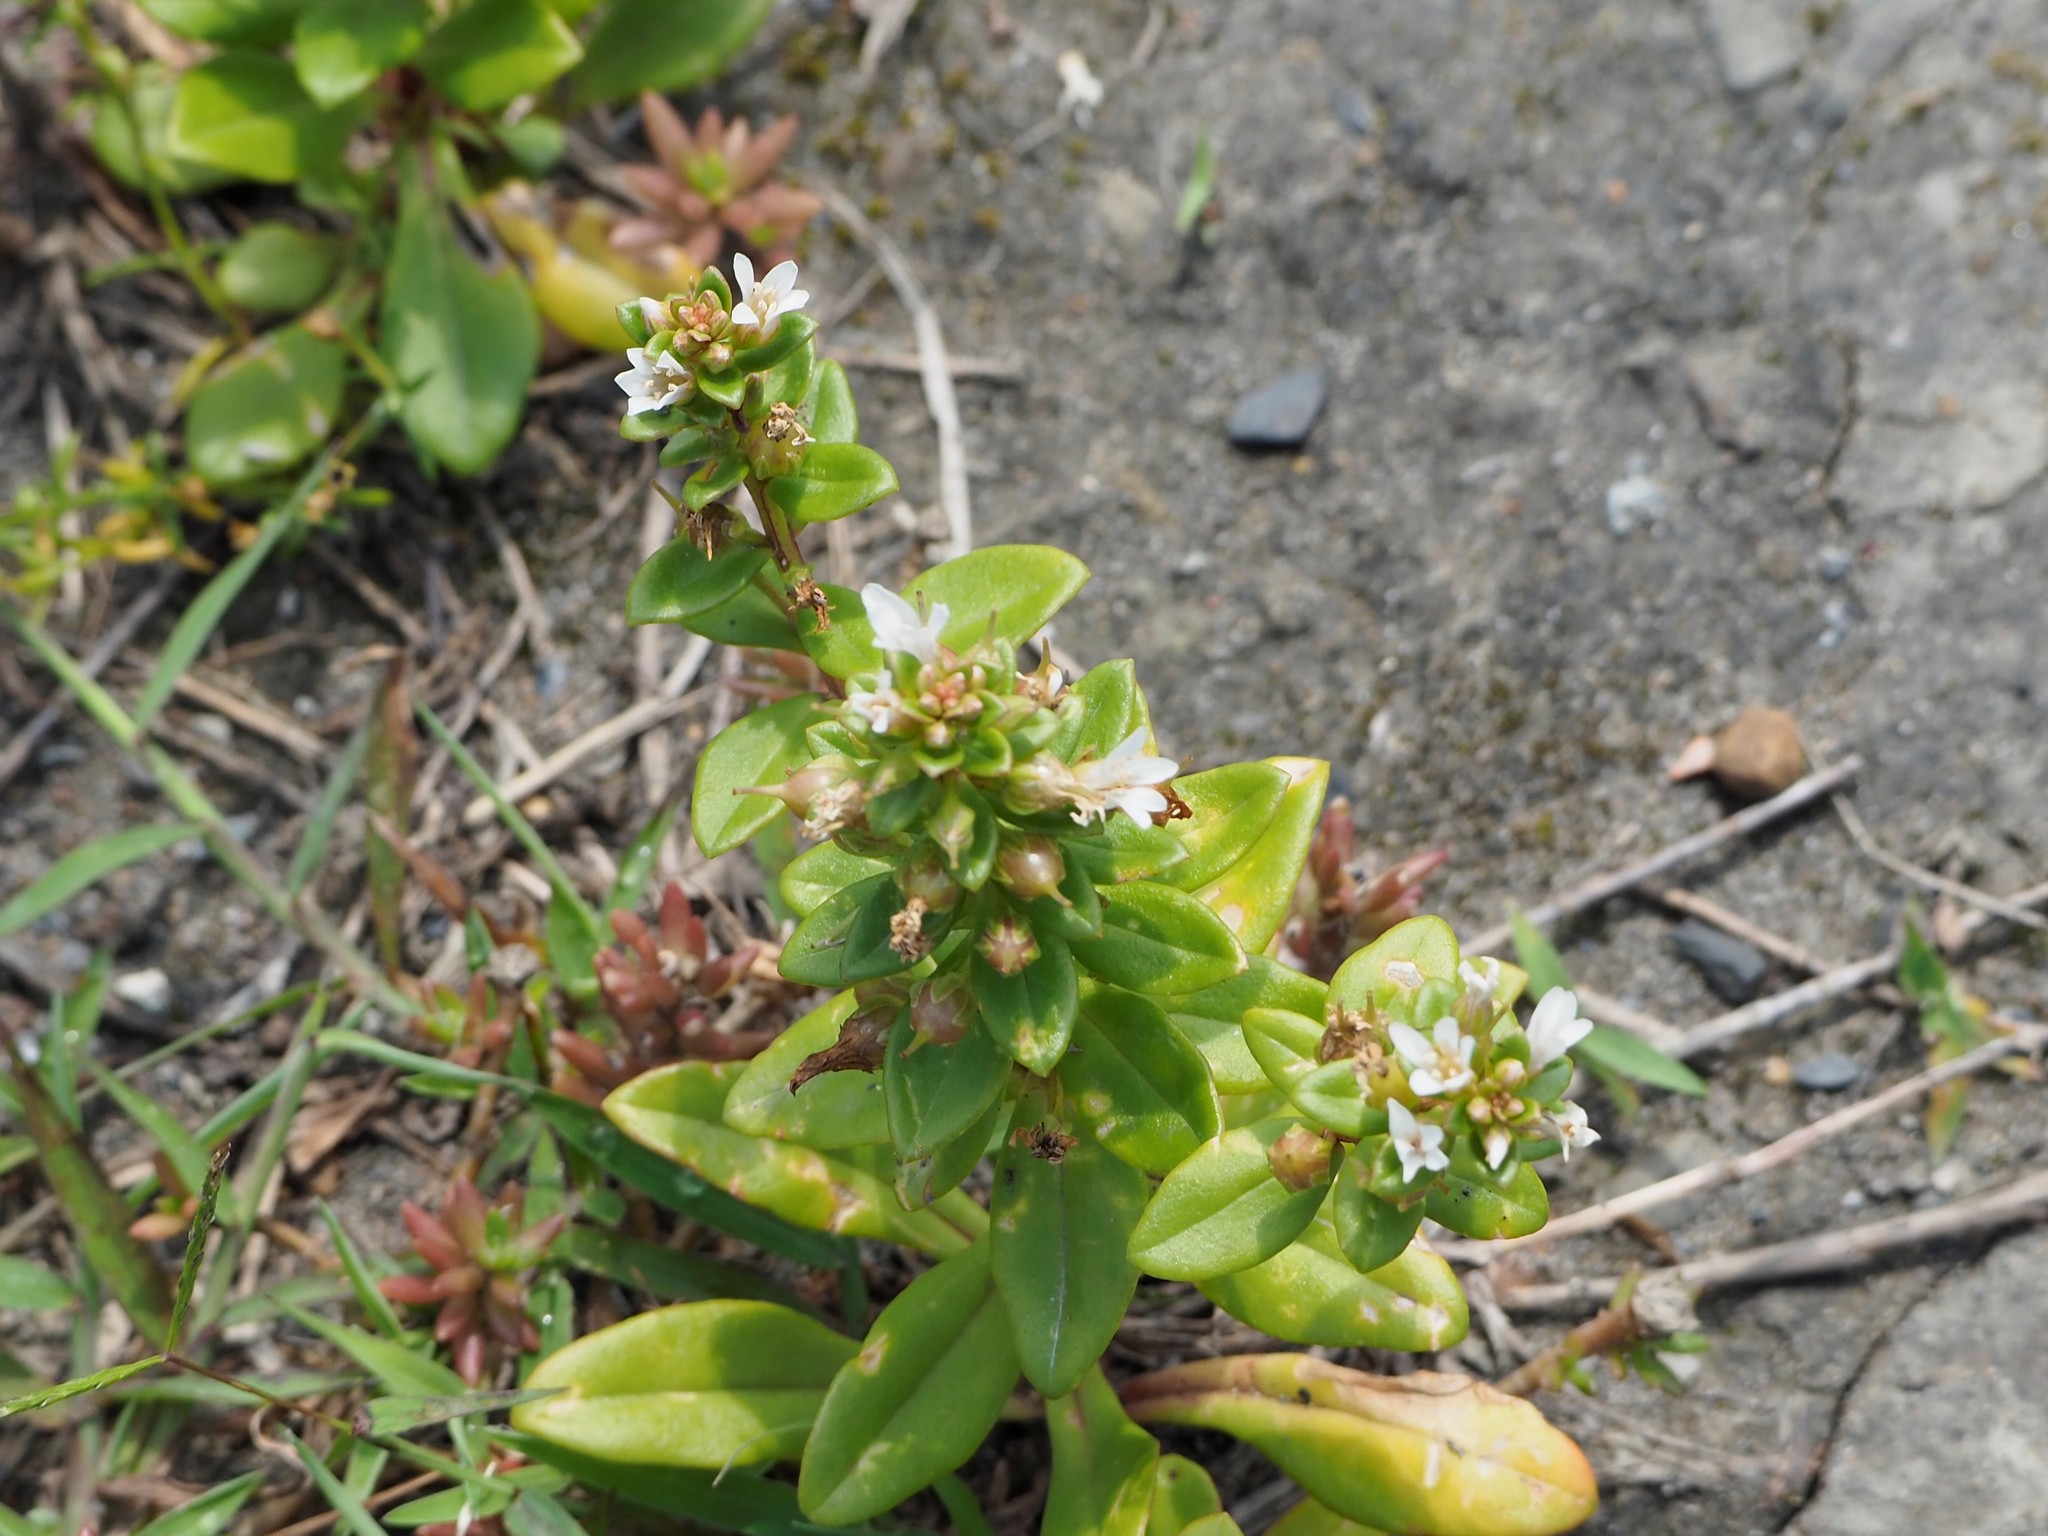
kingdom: Plantae
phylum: Tracheophyta
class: Magnoliopsida
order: Ericales
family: Primulaceae
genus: Lysimachia
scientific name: Lysimachia mauritiana
